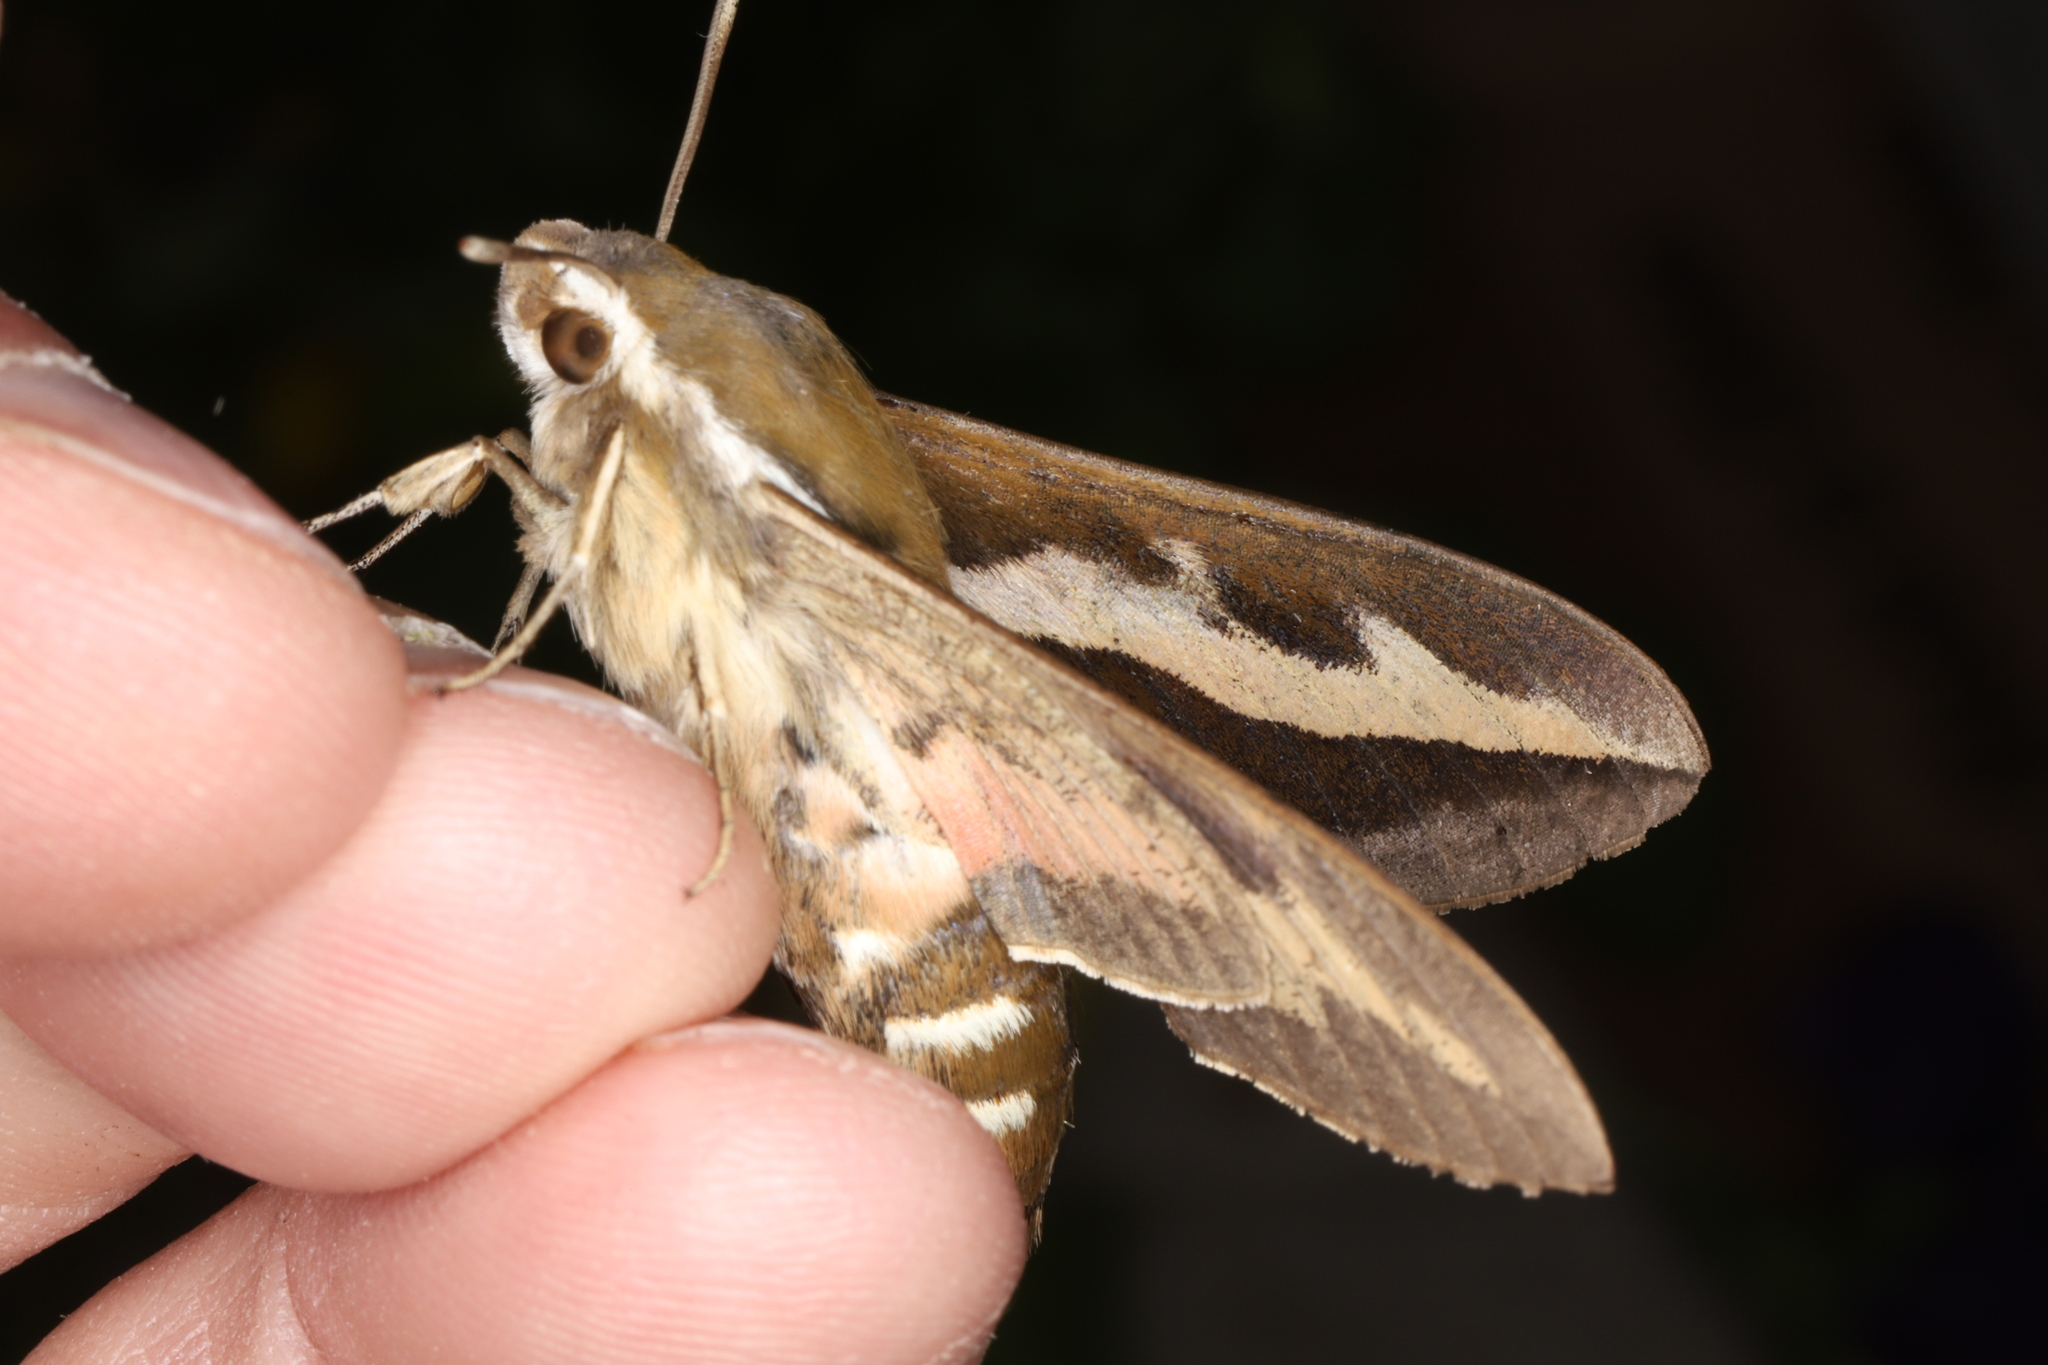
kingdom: Animalia
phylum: Arthropoda
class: Insecta
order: Lepidoptera
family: Sphingidae
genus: Hyles
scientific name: Hyles gallii
